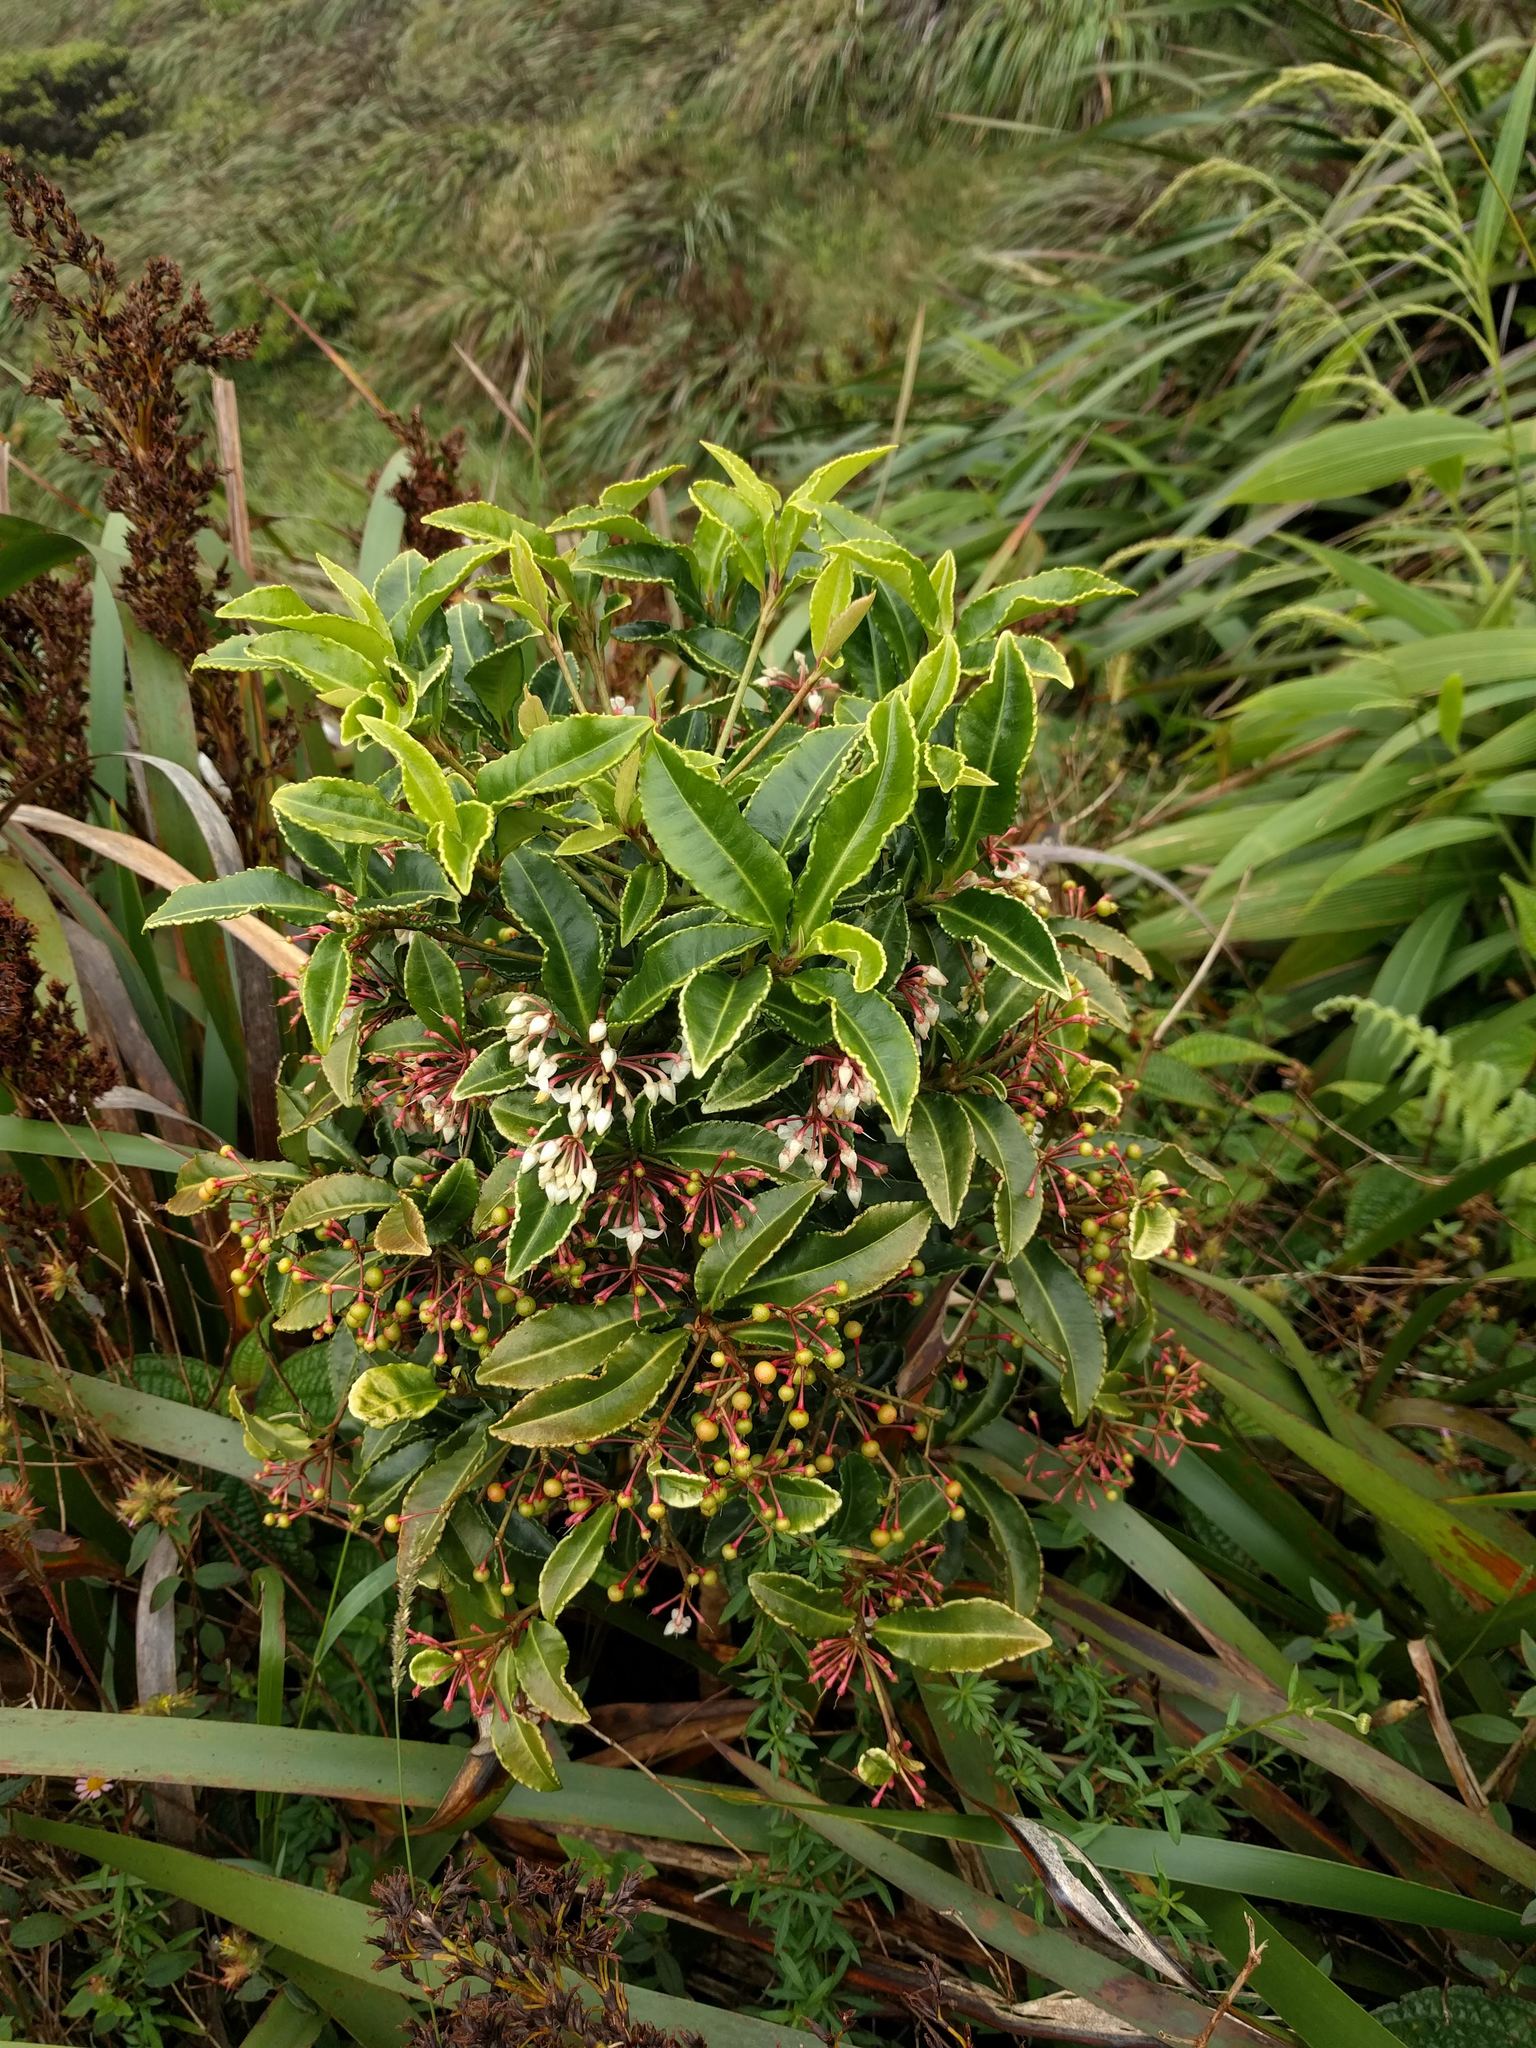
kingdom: Plantae
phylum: Tracheophyta
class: Magnoliopsida
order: Ericales
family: Primulaceae
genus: Ardisia
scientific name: Ardisia crenata
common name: Hen's eyes
